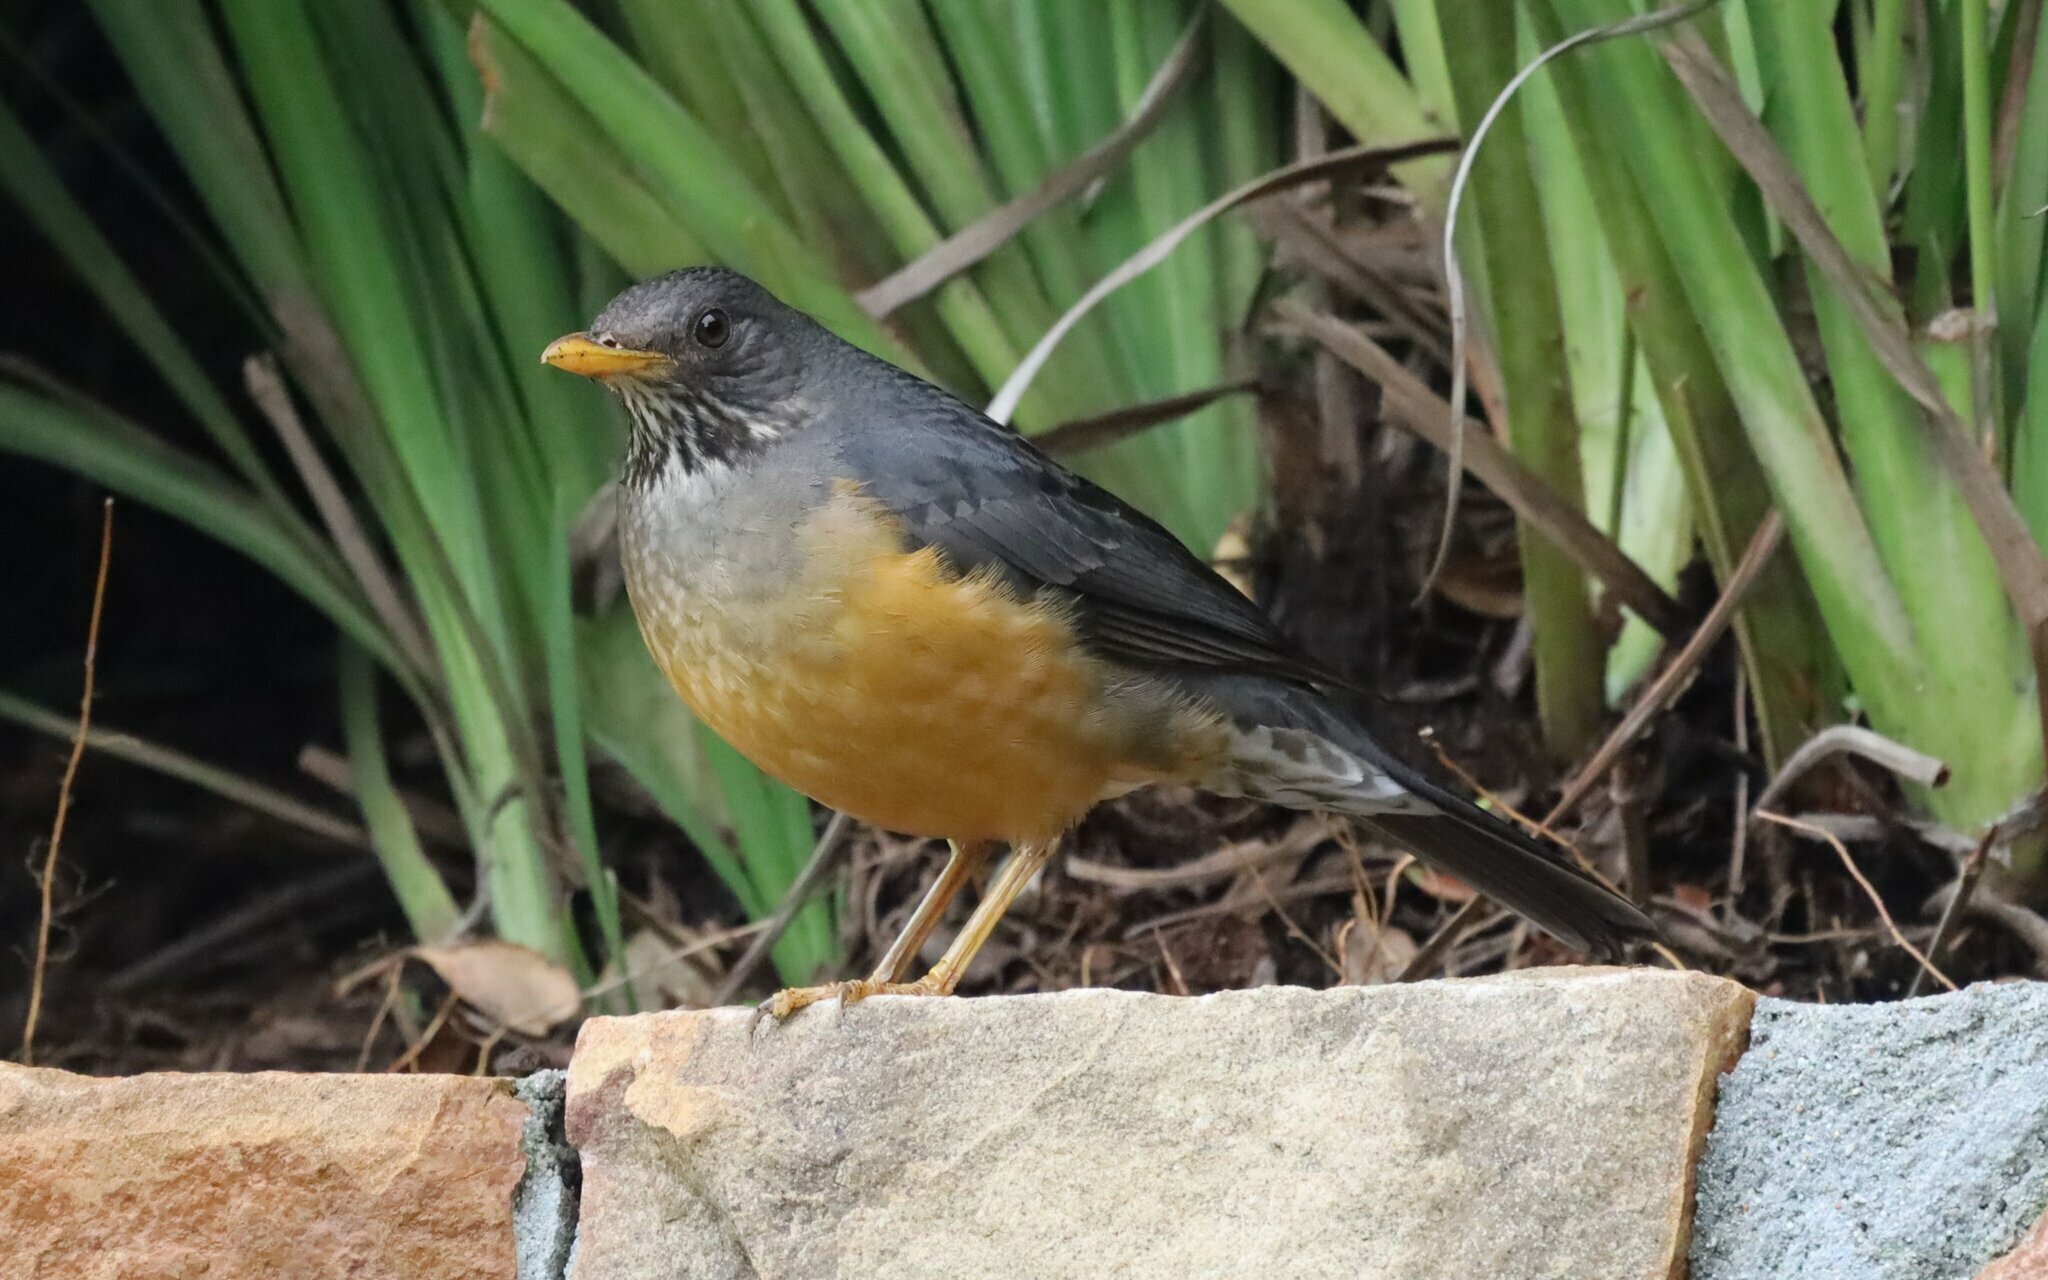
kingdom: Animalia
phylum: Chordata
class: Aves
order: Passeriformes
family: Turdidae
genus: Turdus
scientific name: Turdus olivaceus
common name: Olive thrush
